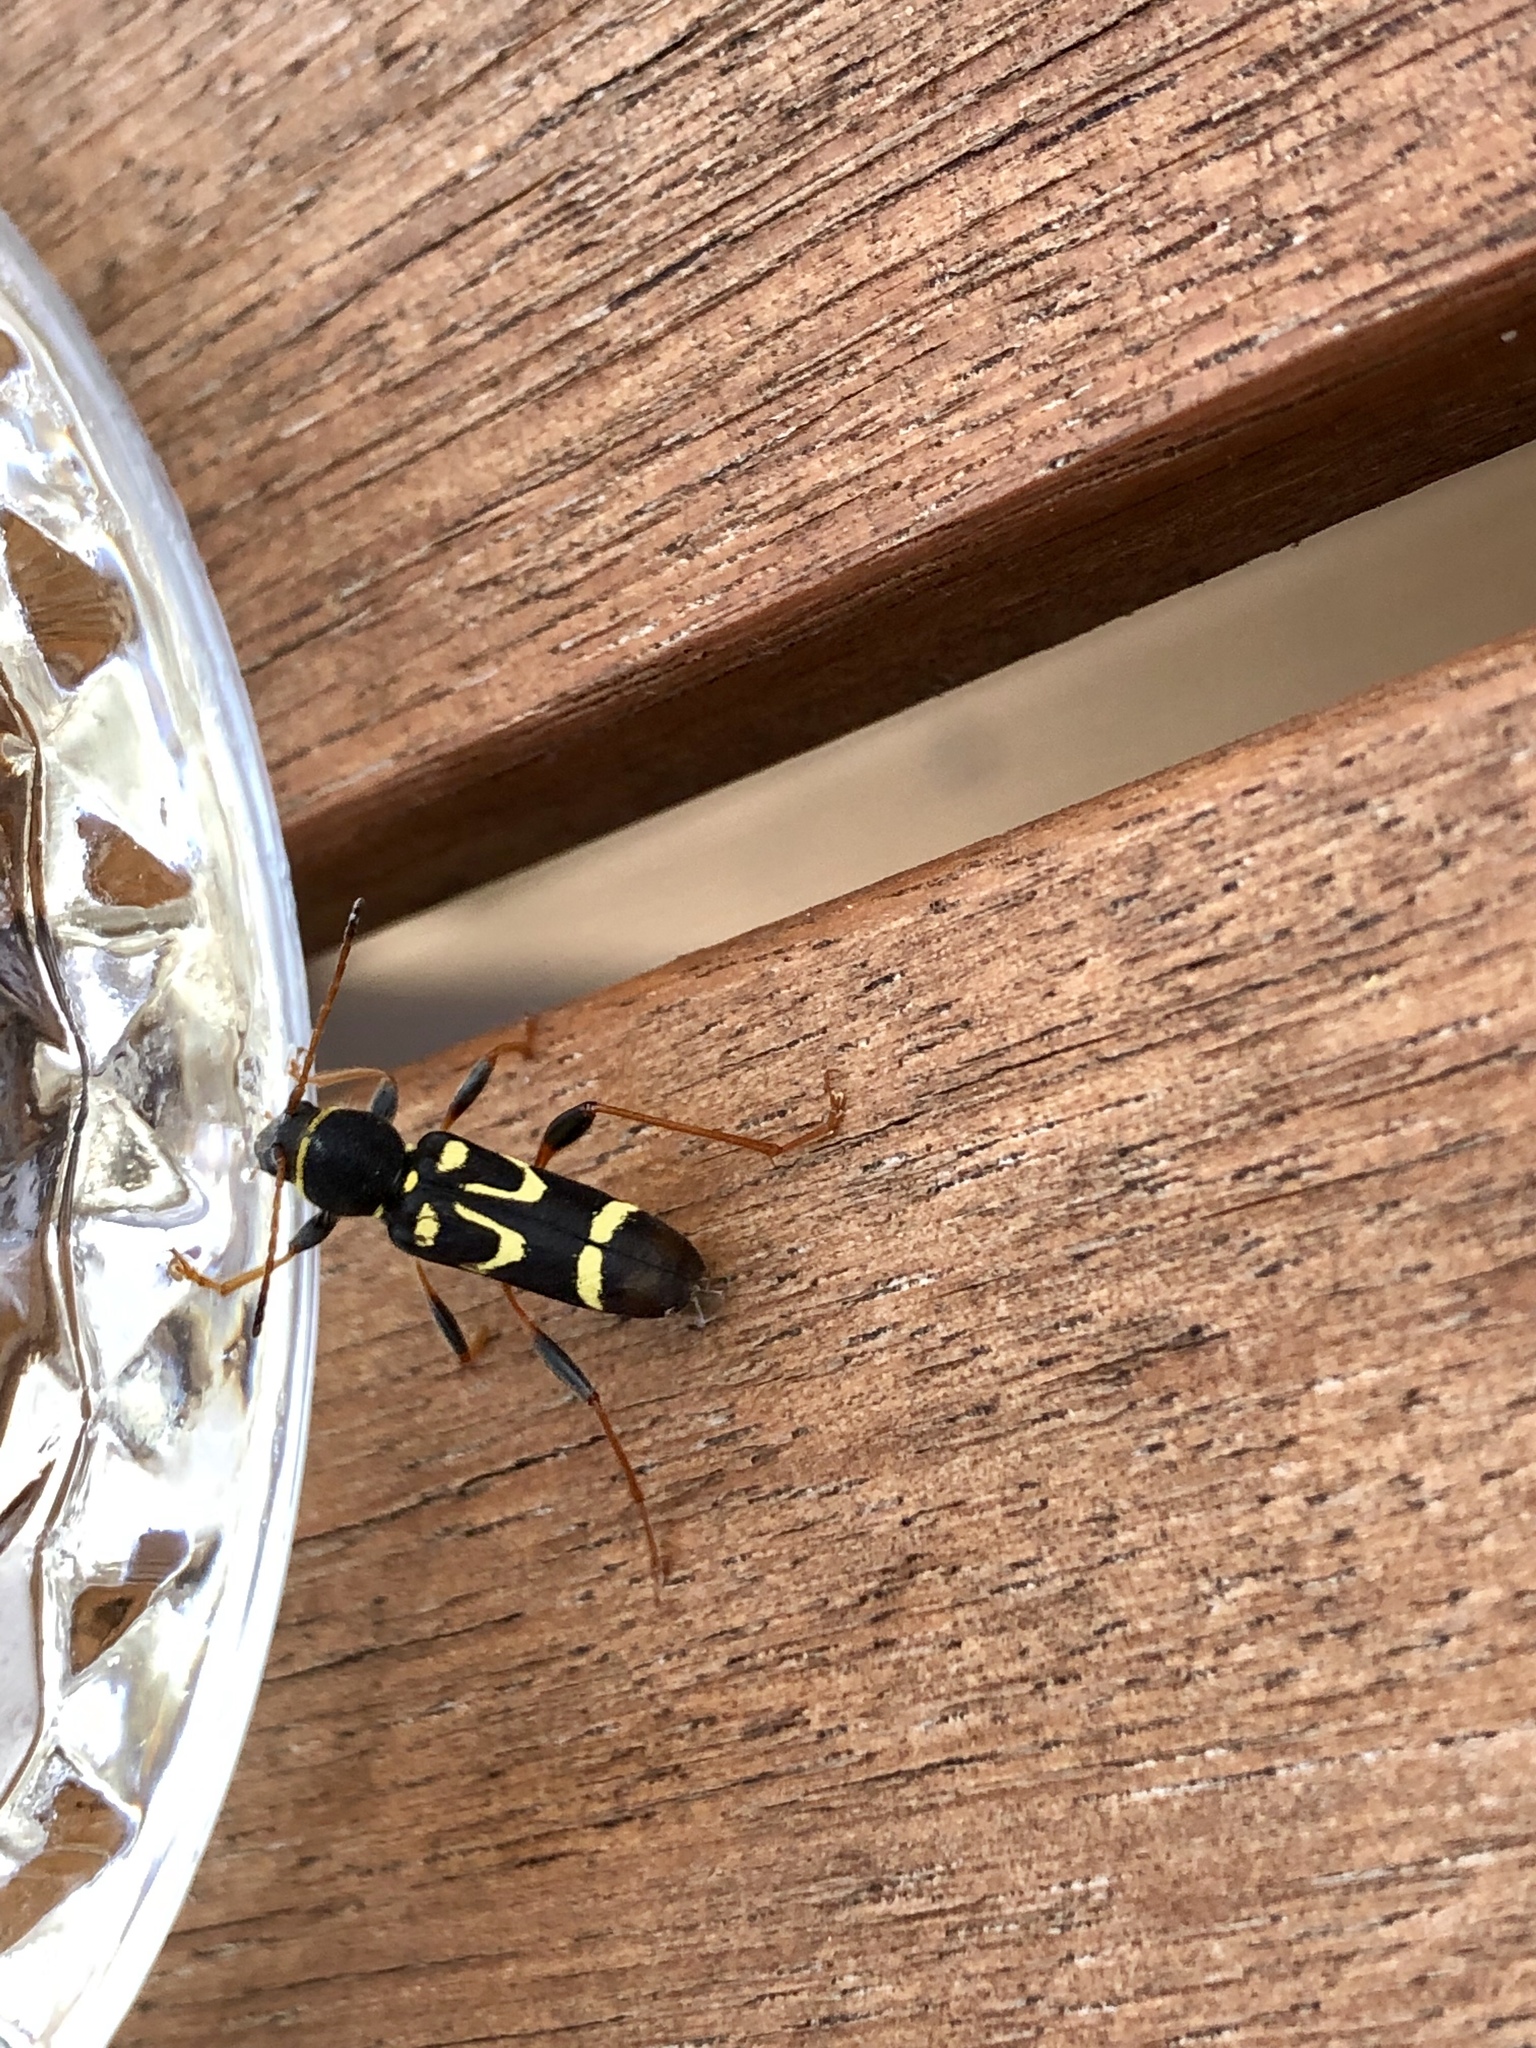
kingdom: Animalia
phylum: Arthropoda
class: Insecta
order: Coleoptera
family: Cerambycidae
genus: Clytus
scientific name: Clytus ruricola
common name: Round-necked longhorn beetle
